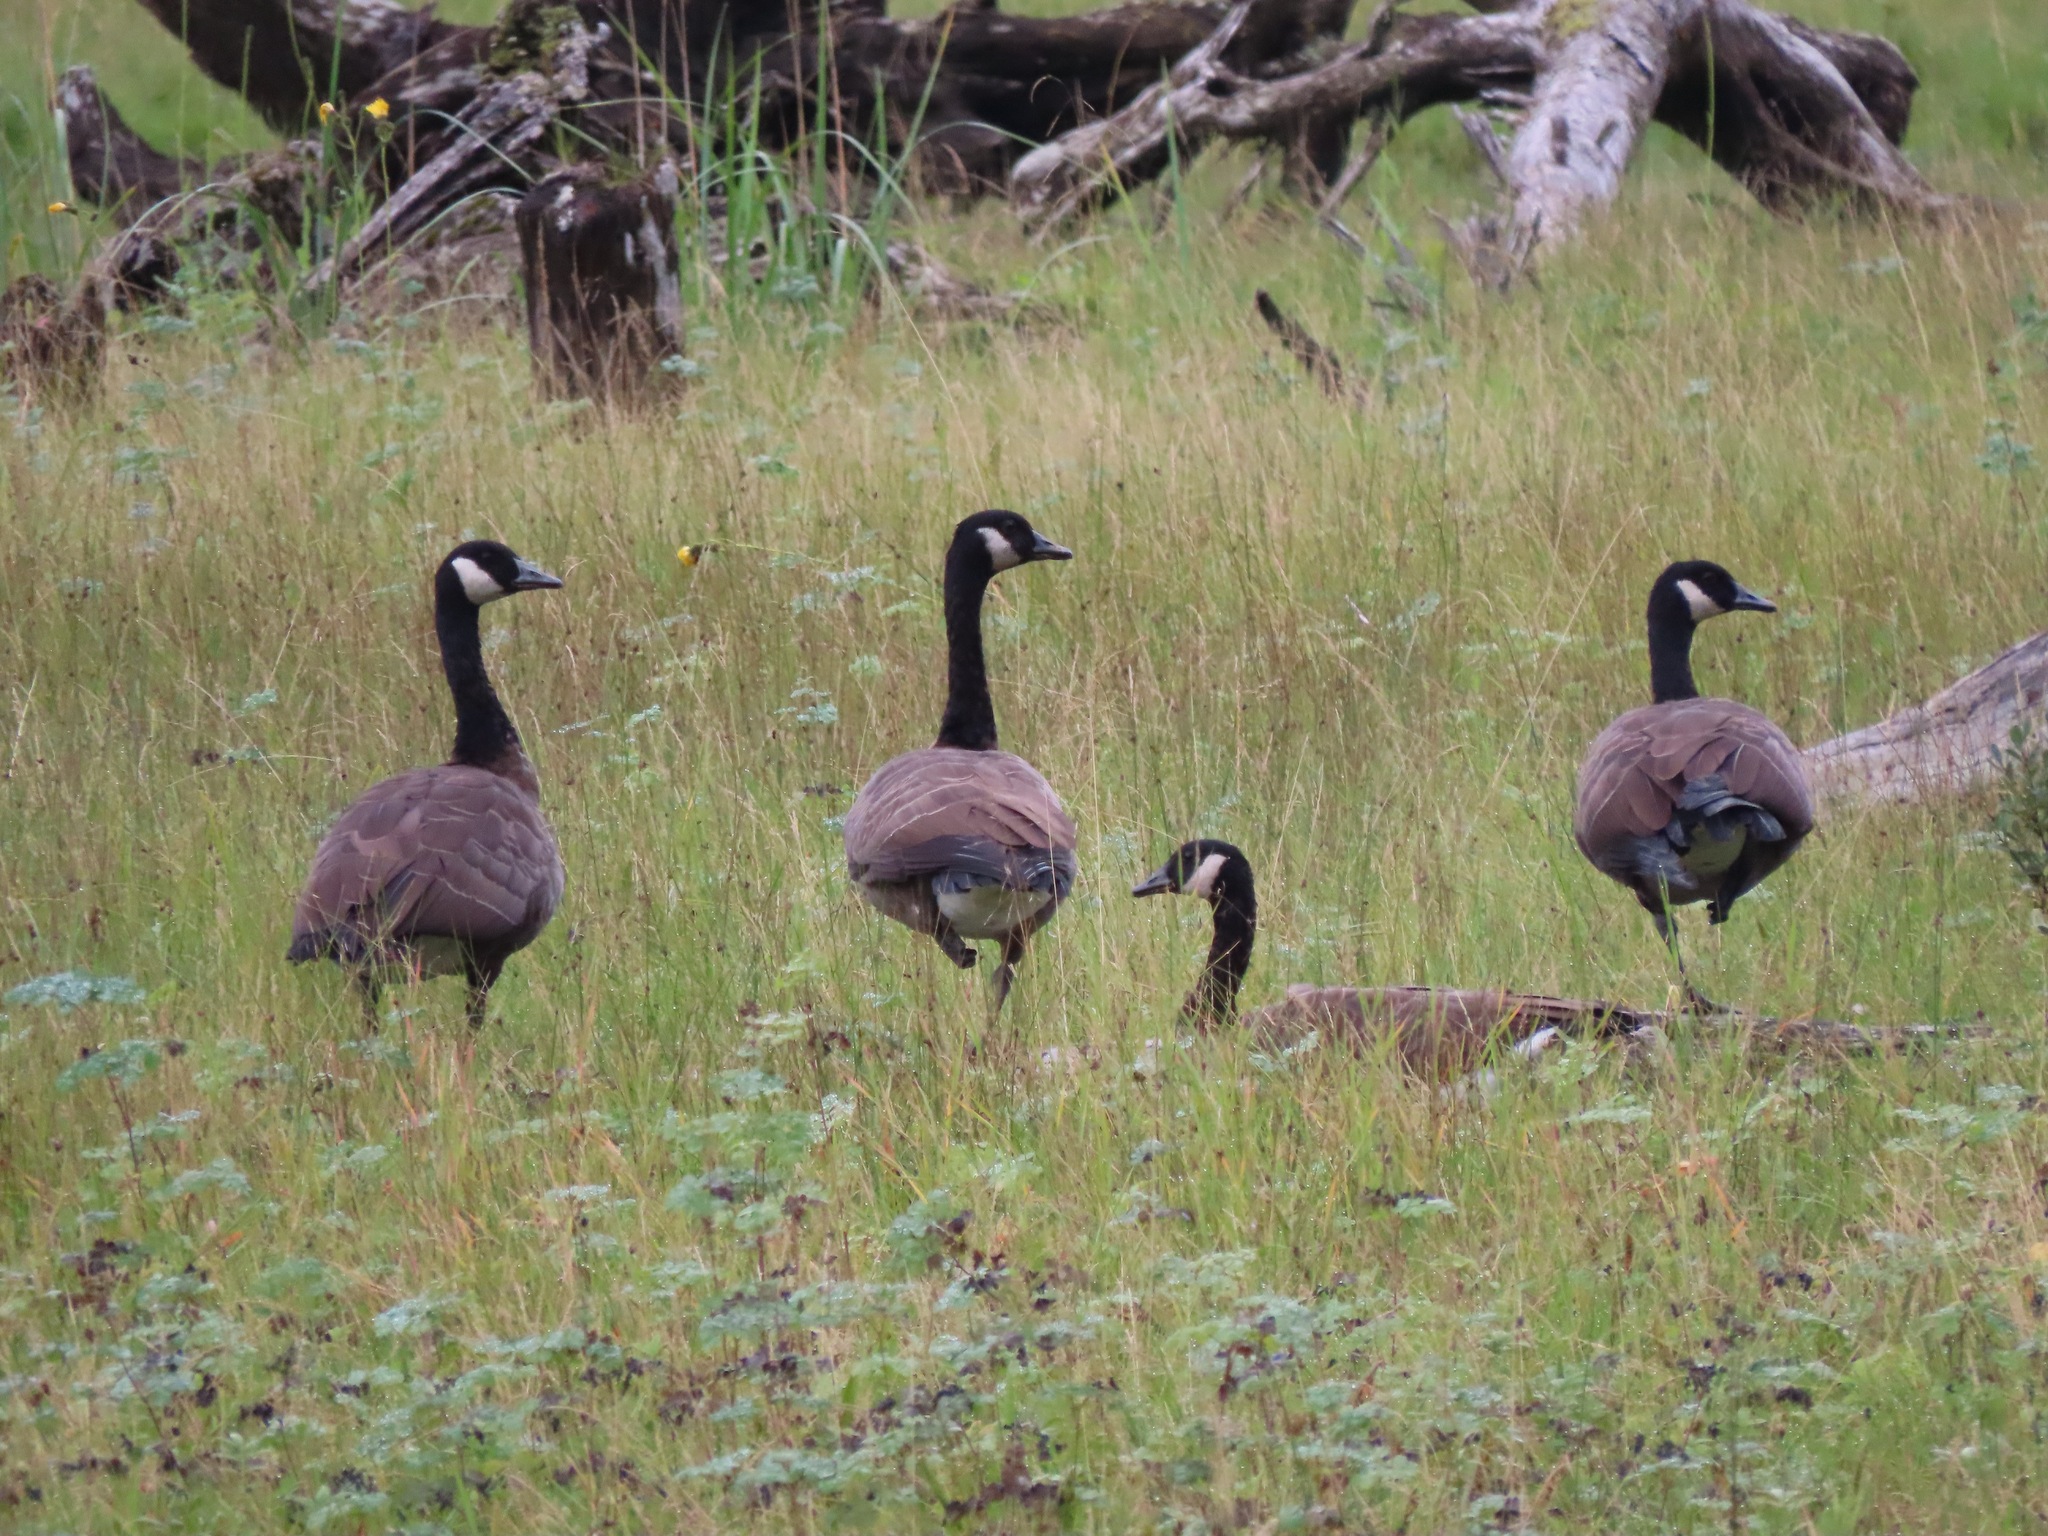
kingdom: Animalia
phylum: Chordata
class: Aves
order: Anseriformes
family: Anatidae
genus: Branta
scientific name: Branta canadensis
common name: Canada goose
